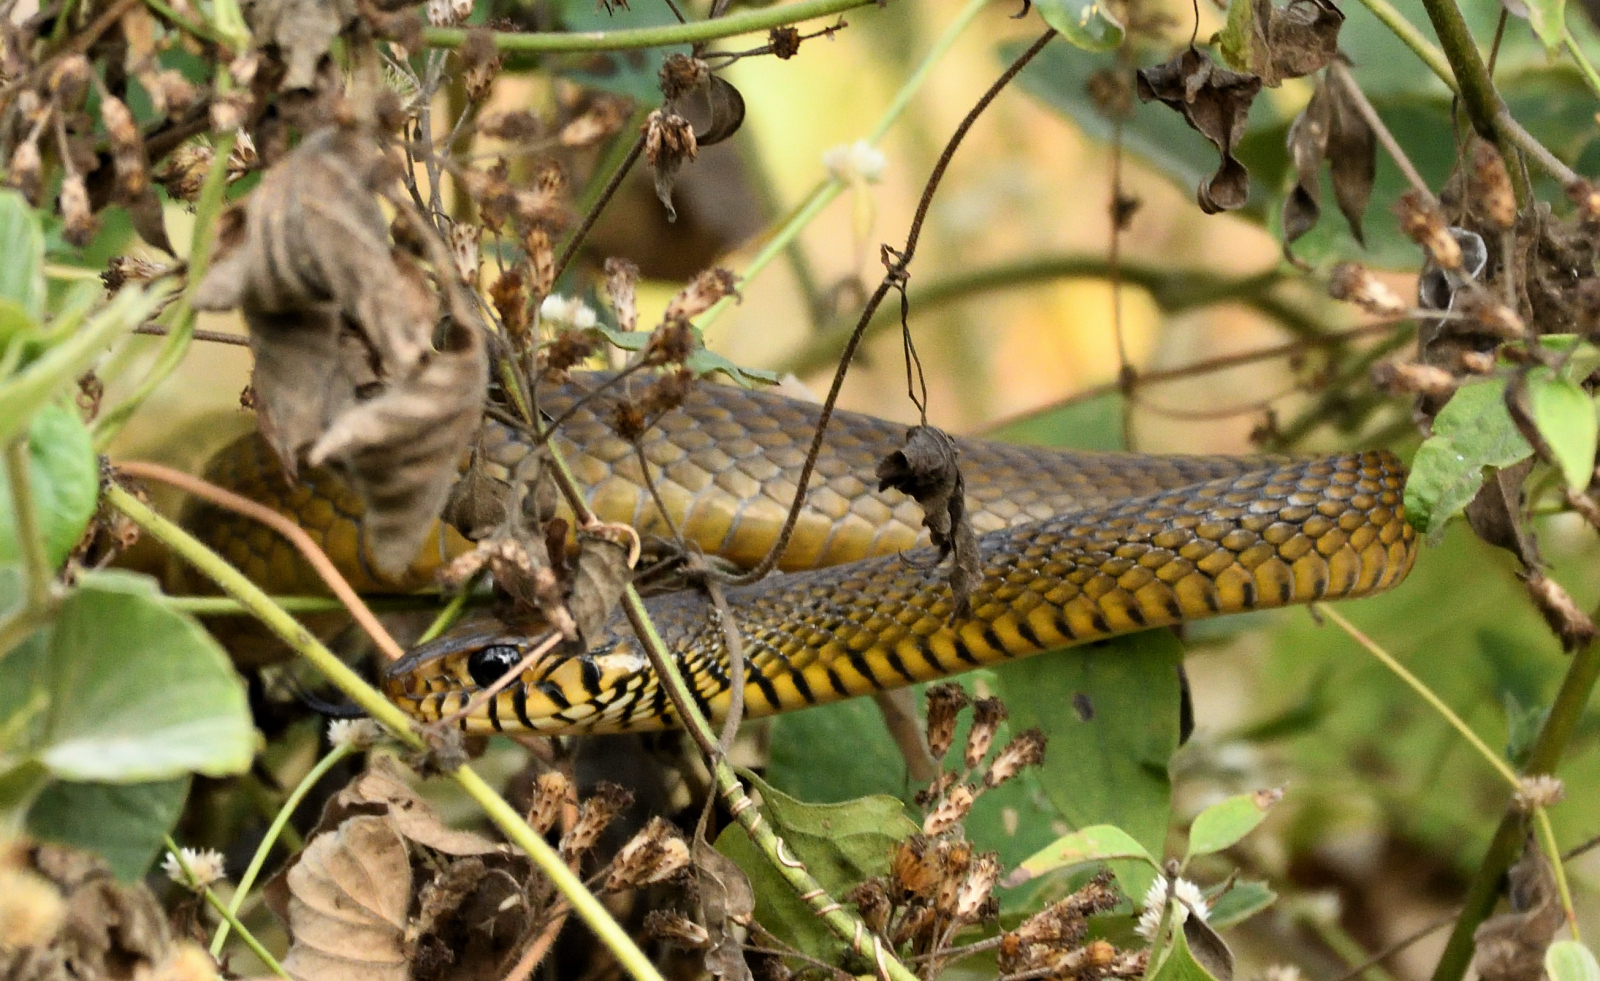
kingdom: Animalia
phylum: Chordata
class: Squamata
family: Colubridae
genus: Ptyas
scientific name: Ptyas mucosa
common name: Oriental ratsnake
